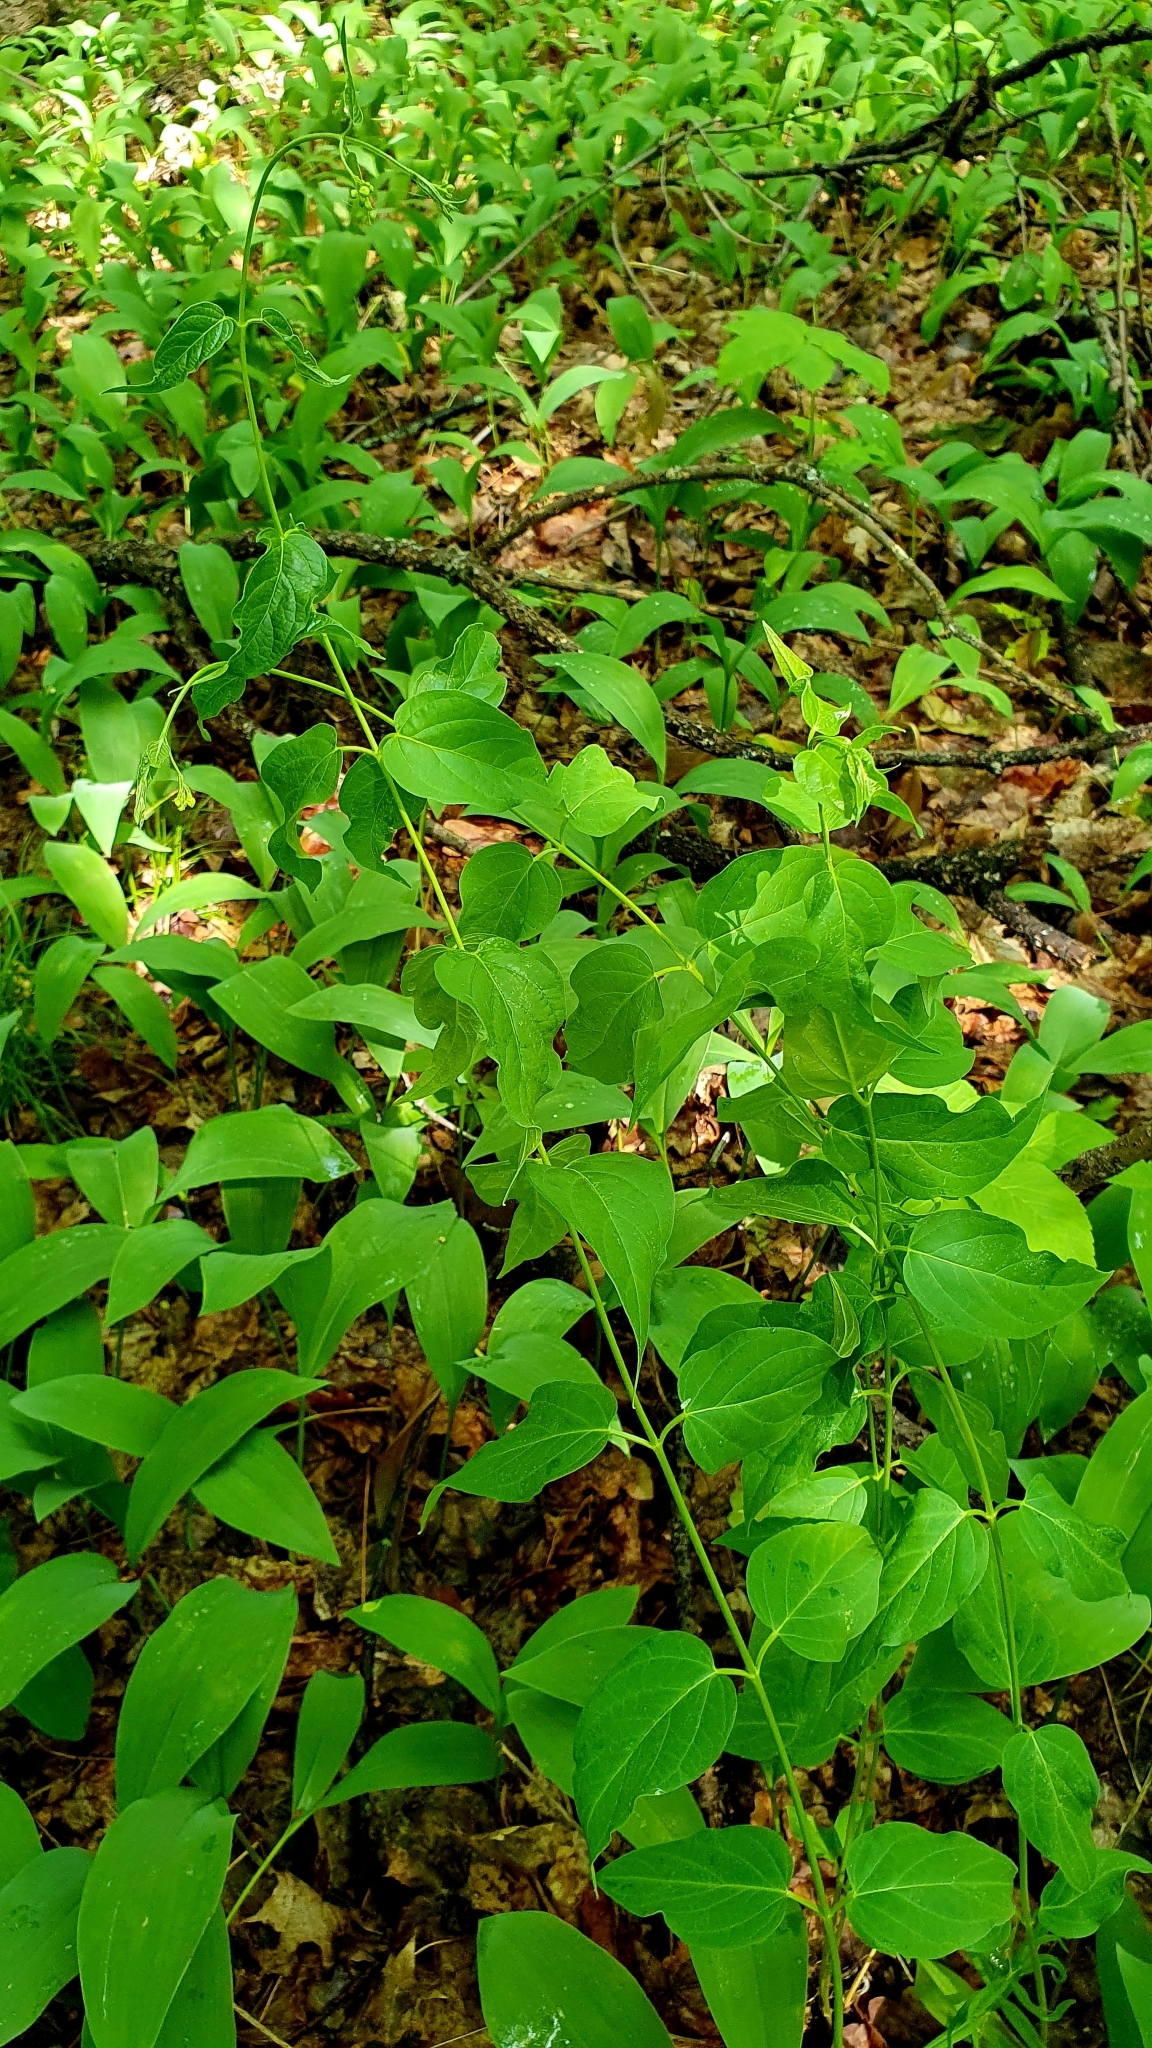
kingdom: Plantae
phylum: Tracheophyta
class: Magnoliopsida
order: Gentianales
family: Apocynaceae
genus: Vincetoxicum
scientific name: Vincetoxicum hirundinaria
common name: White swallowwort
